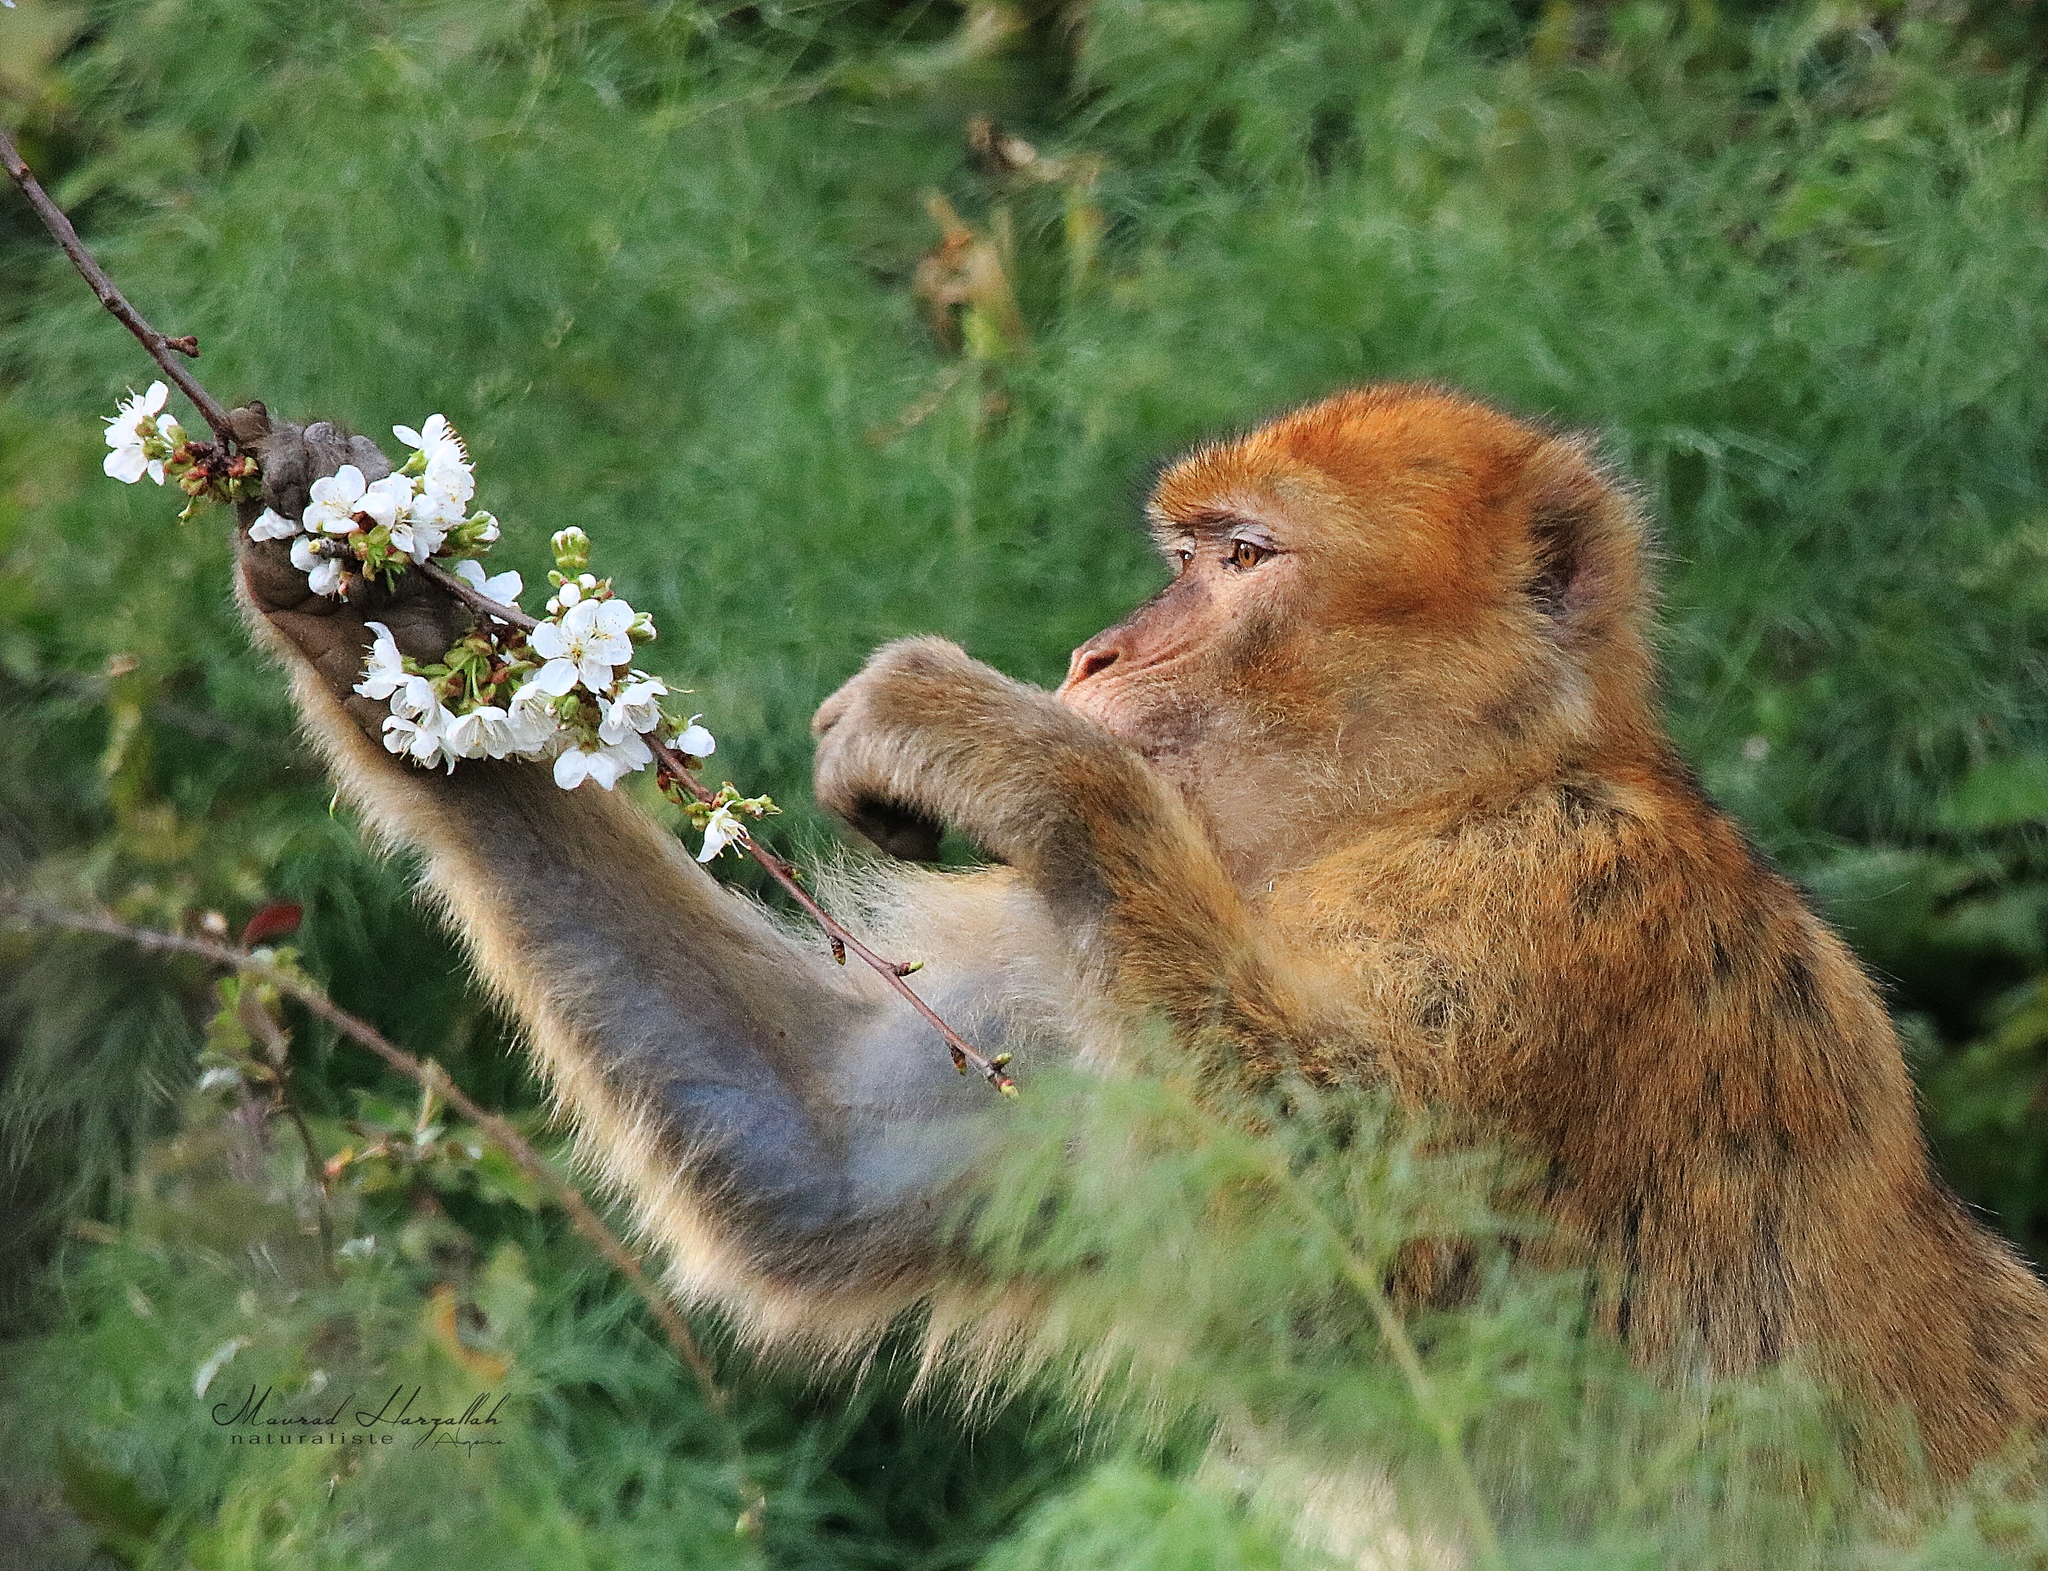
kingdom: Animalia
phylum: Chordata
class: Mammalia
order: Primates
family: Cercopithecidae
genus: Macaca
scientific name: Macaca sylvanus
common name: Barbary macaque
